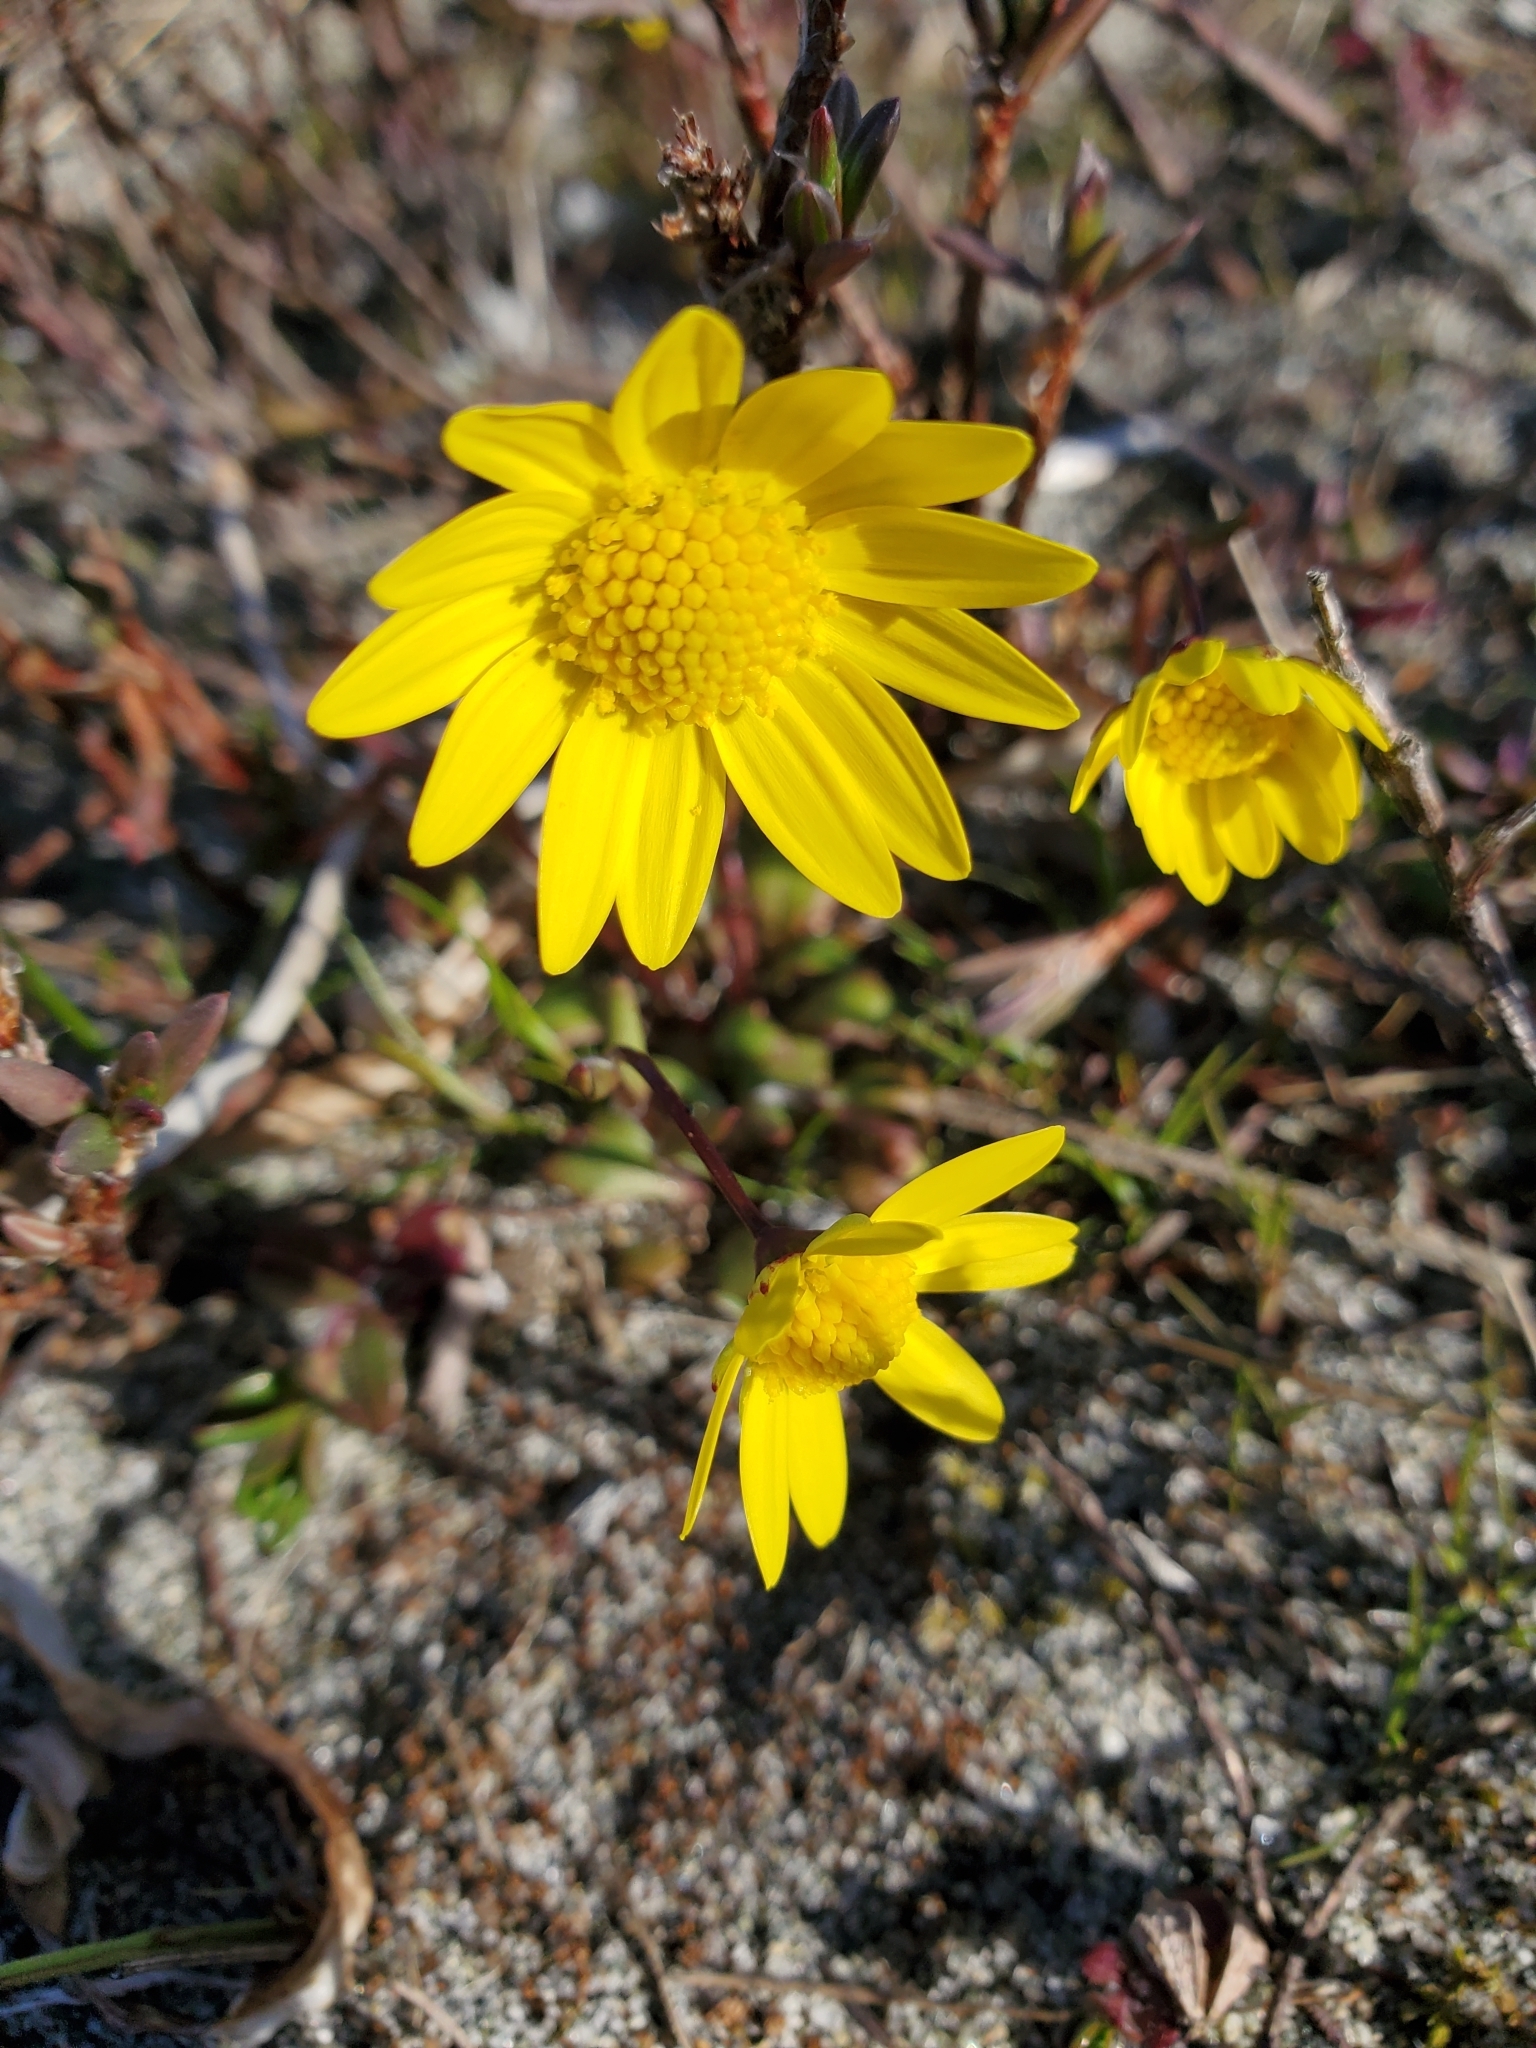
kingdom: Plantae
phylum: Tracheophyta
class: Magnoliopsida
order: Asterales
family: Asteraceae
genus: Crocidium
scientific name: Crocidium multicaule
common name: Common spring gold
